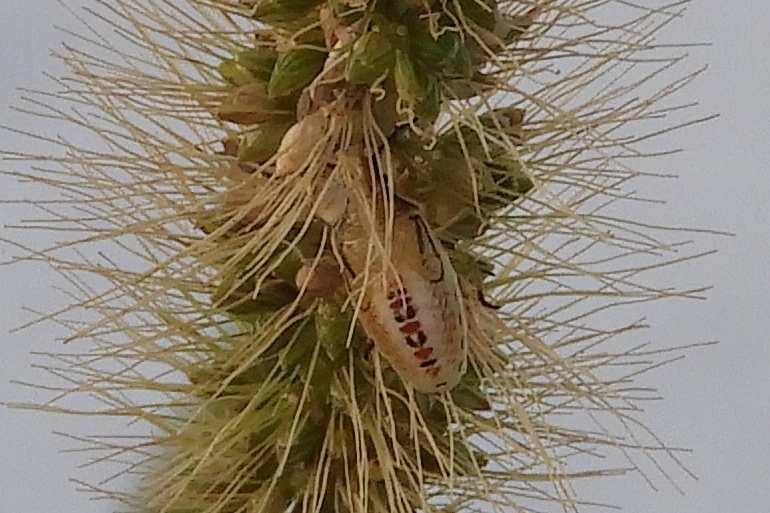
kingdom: Animalia
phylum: Arthropoda
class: Insecta
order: Hemiptera
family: Pentatomidae
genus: Oebalus
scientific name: Oebalus pugnax
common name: Rice stink bug
